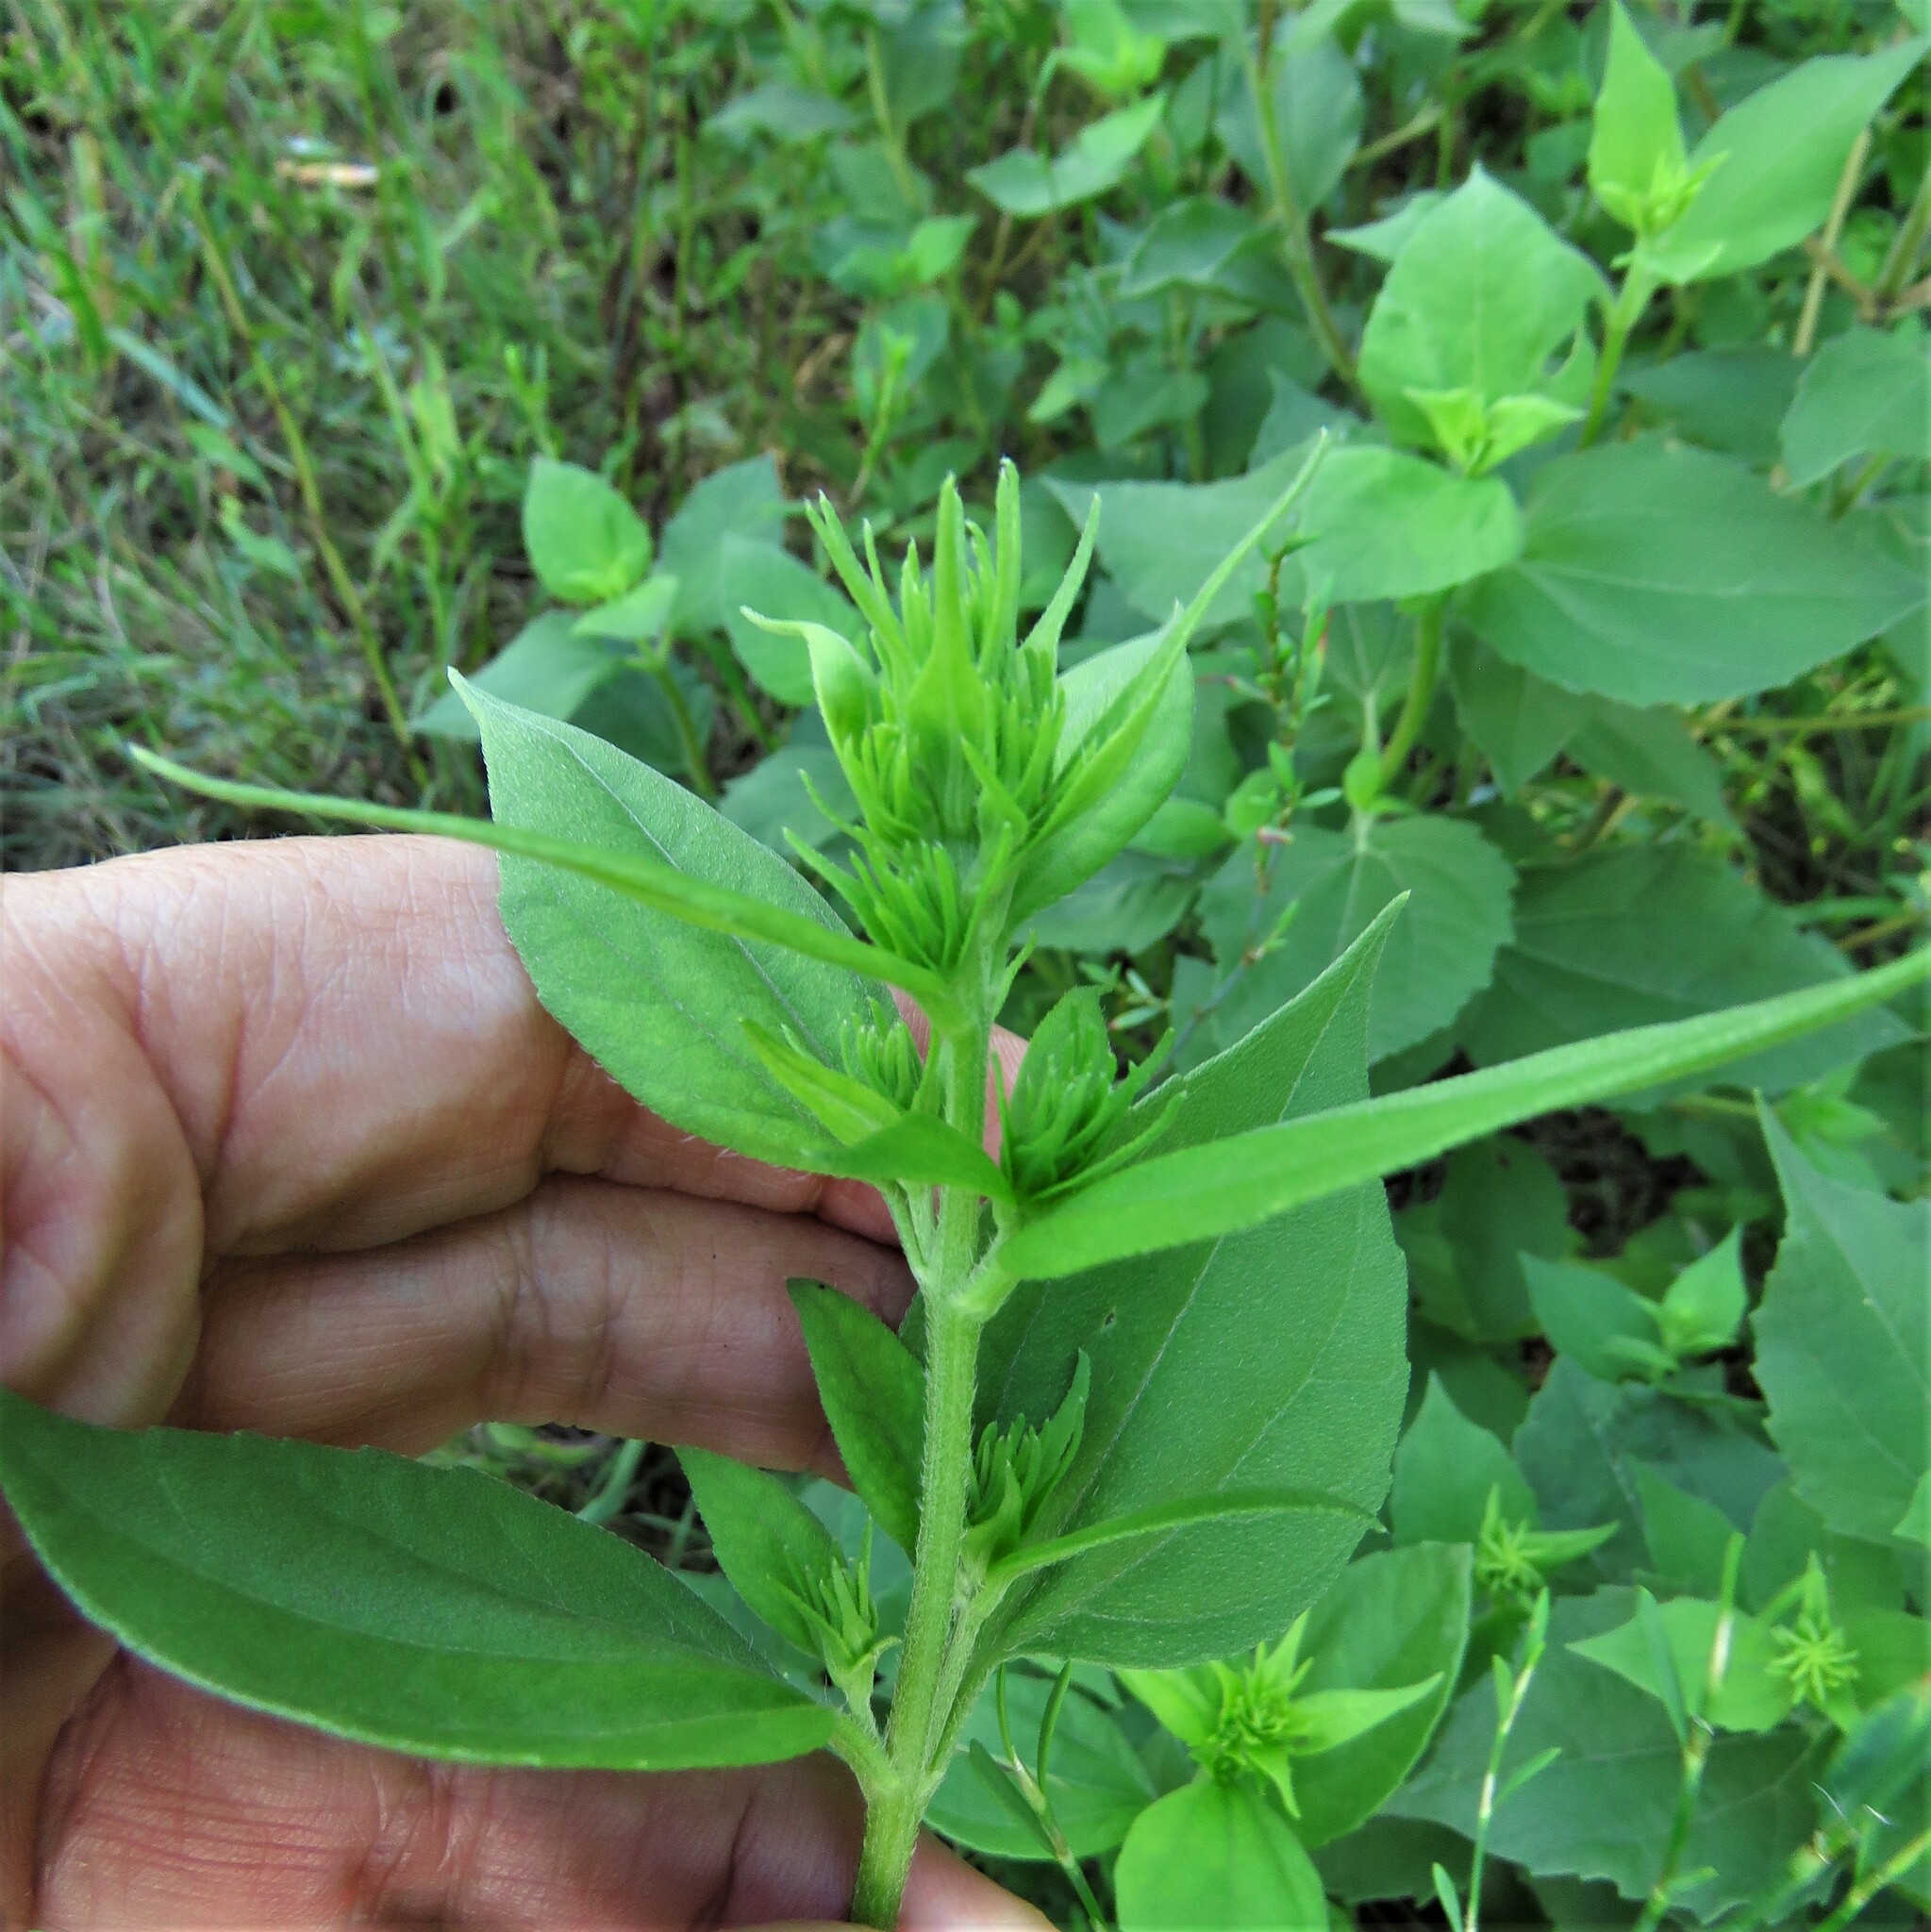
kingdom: Plantae
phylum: Tracheophyta
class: Magnoliopsida
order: Asterales
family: Asteraceae
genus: Iva
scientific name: Iva annua
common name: Marsh-elder
